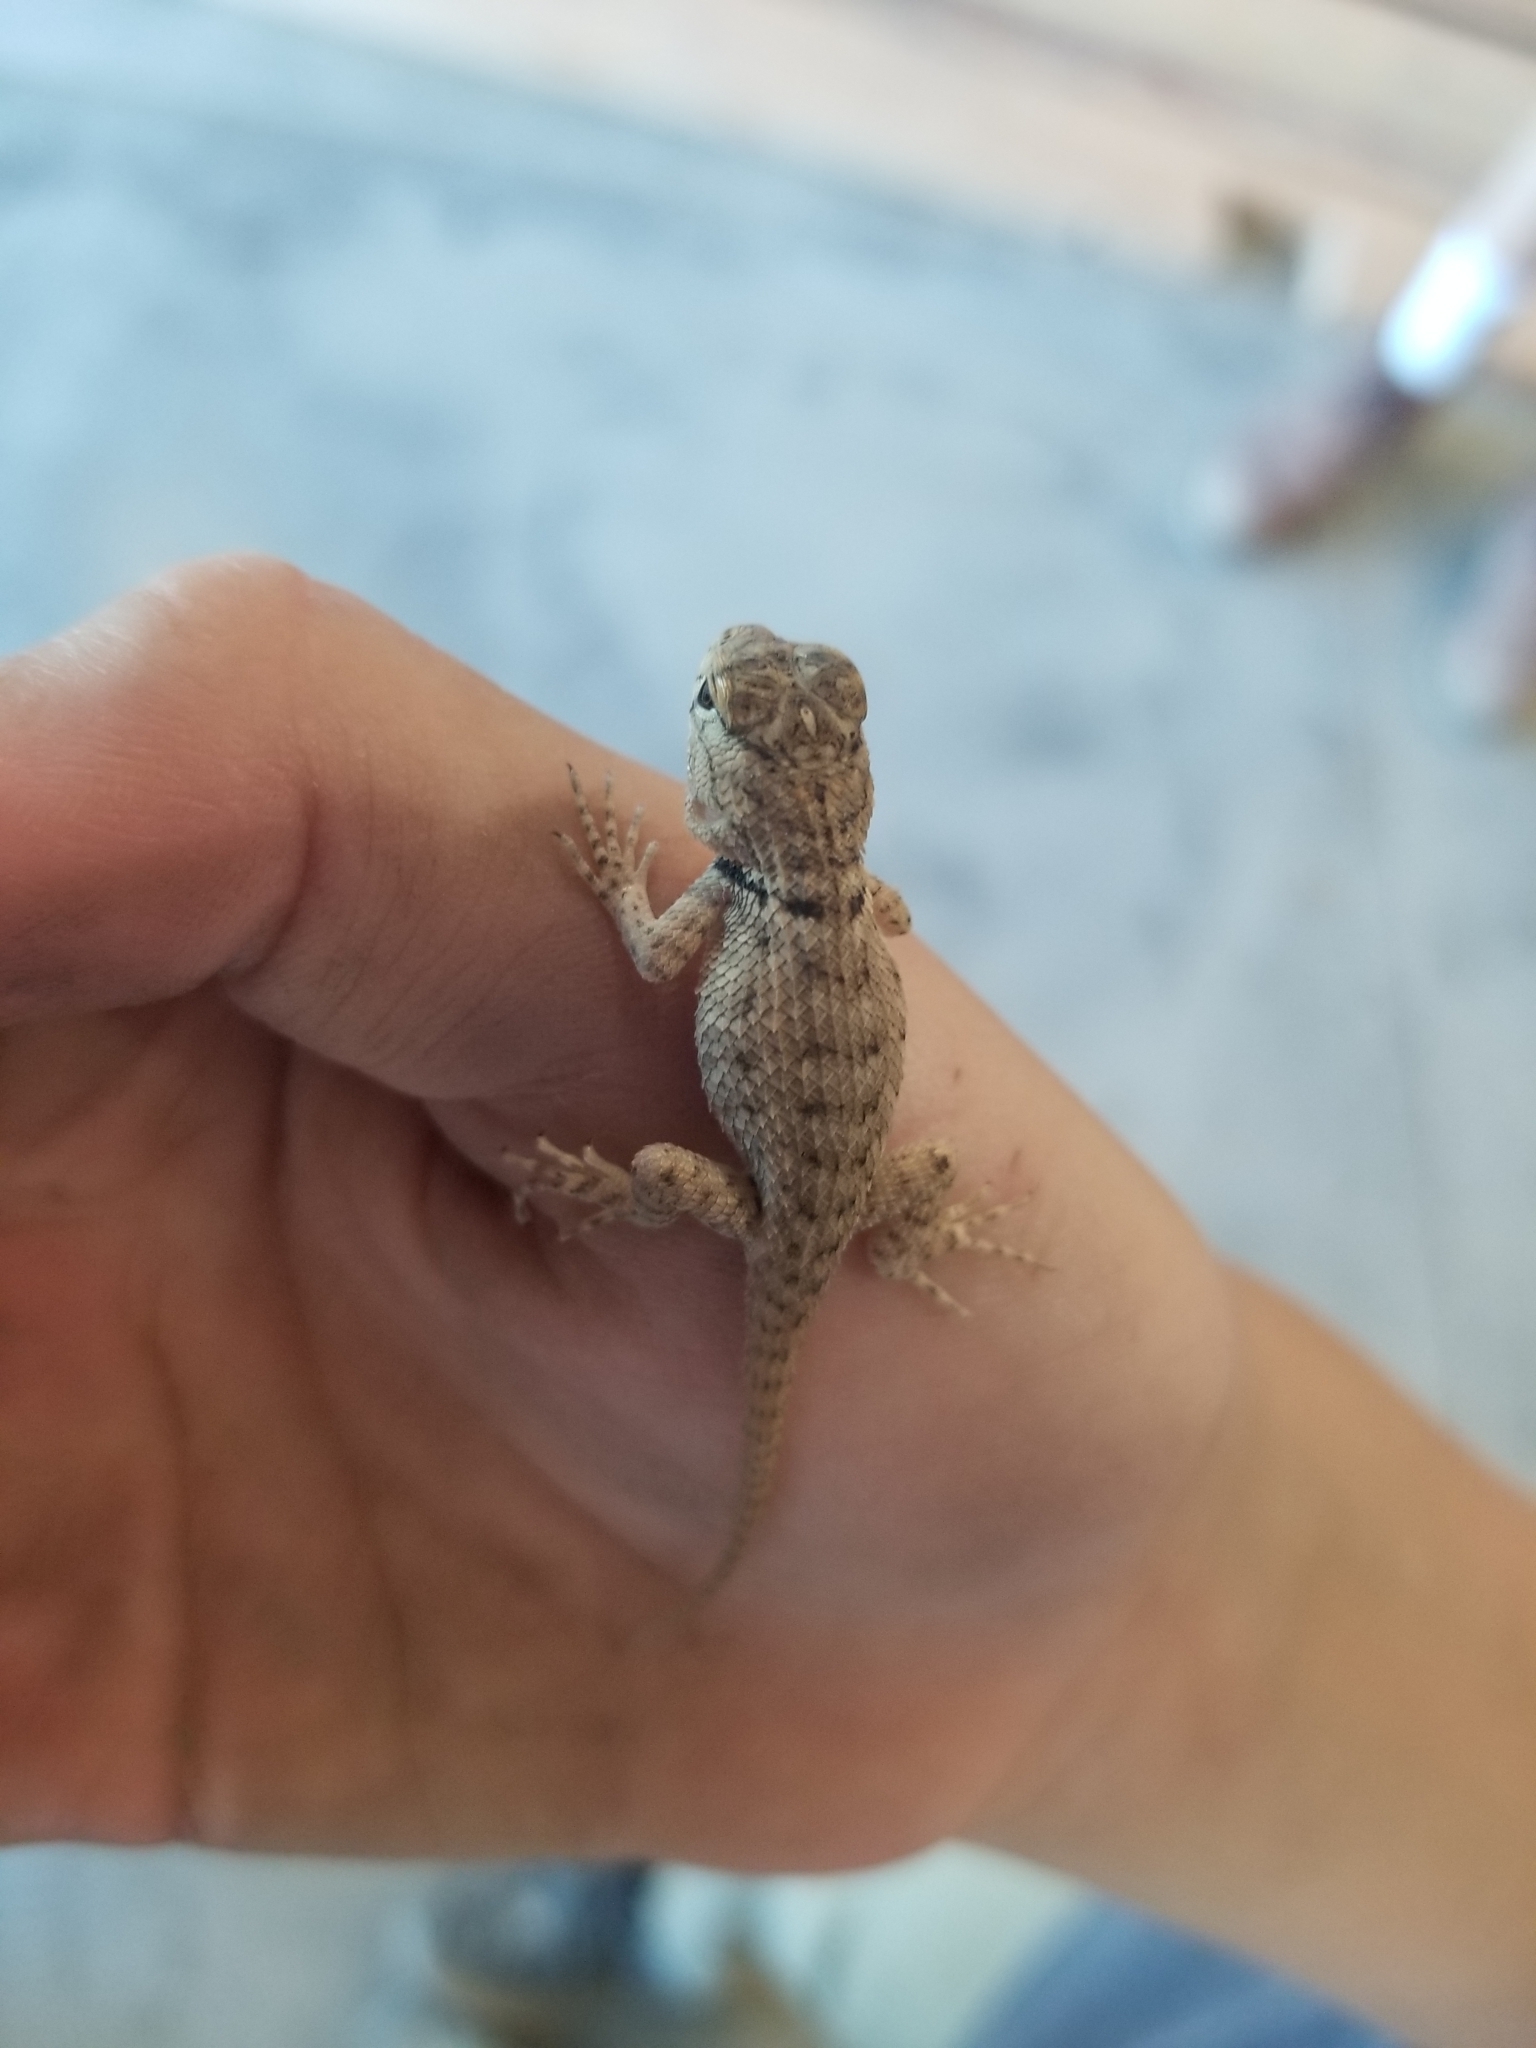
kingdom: Animalia
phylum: Chordata
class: Squamata
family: Phrynosomatidae
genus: Sceloporus
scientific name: Sceloporus magister
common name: Desert spiny lizard
